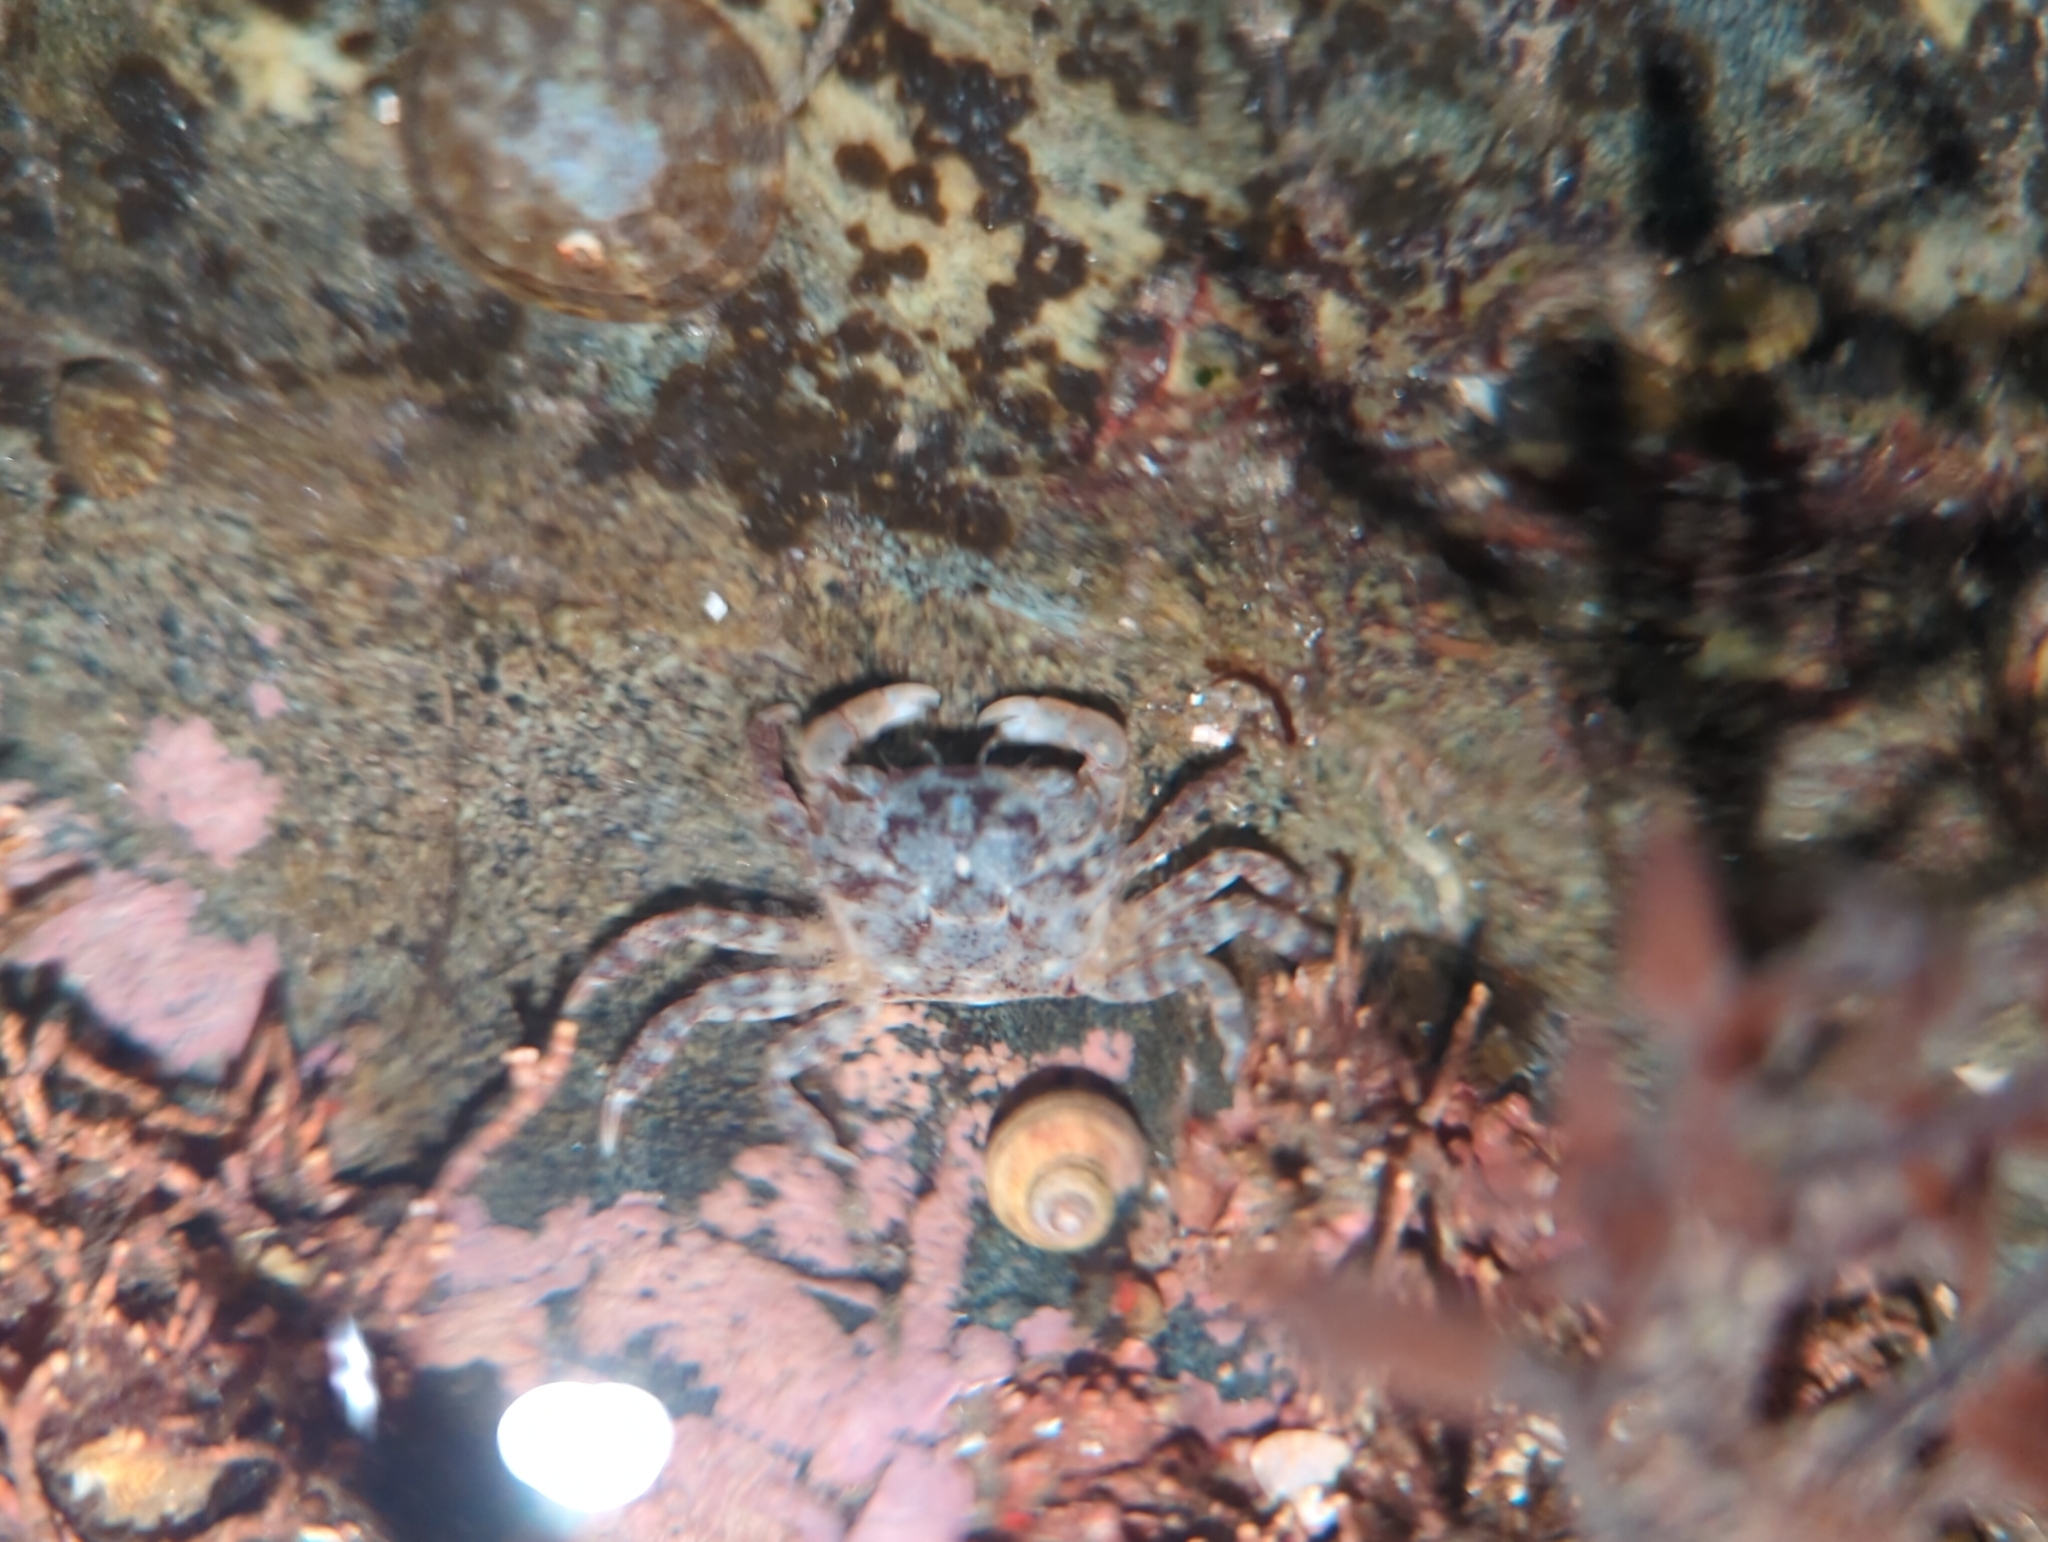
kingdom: Animalia
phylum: Arthropoda
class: Malacostraca
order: Decapoda
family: Varunidae
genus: Hemigrapsus
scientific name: Hemigrapsus oregonensis
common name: Yellow shore crab
